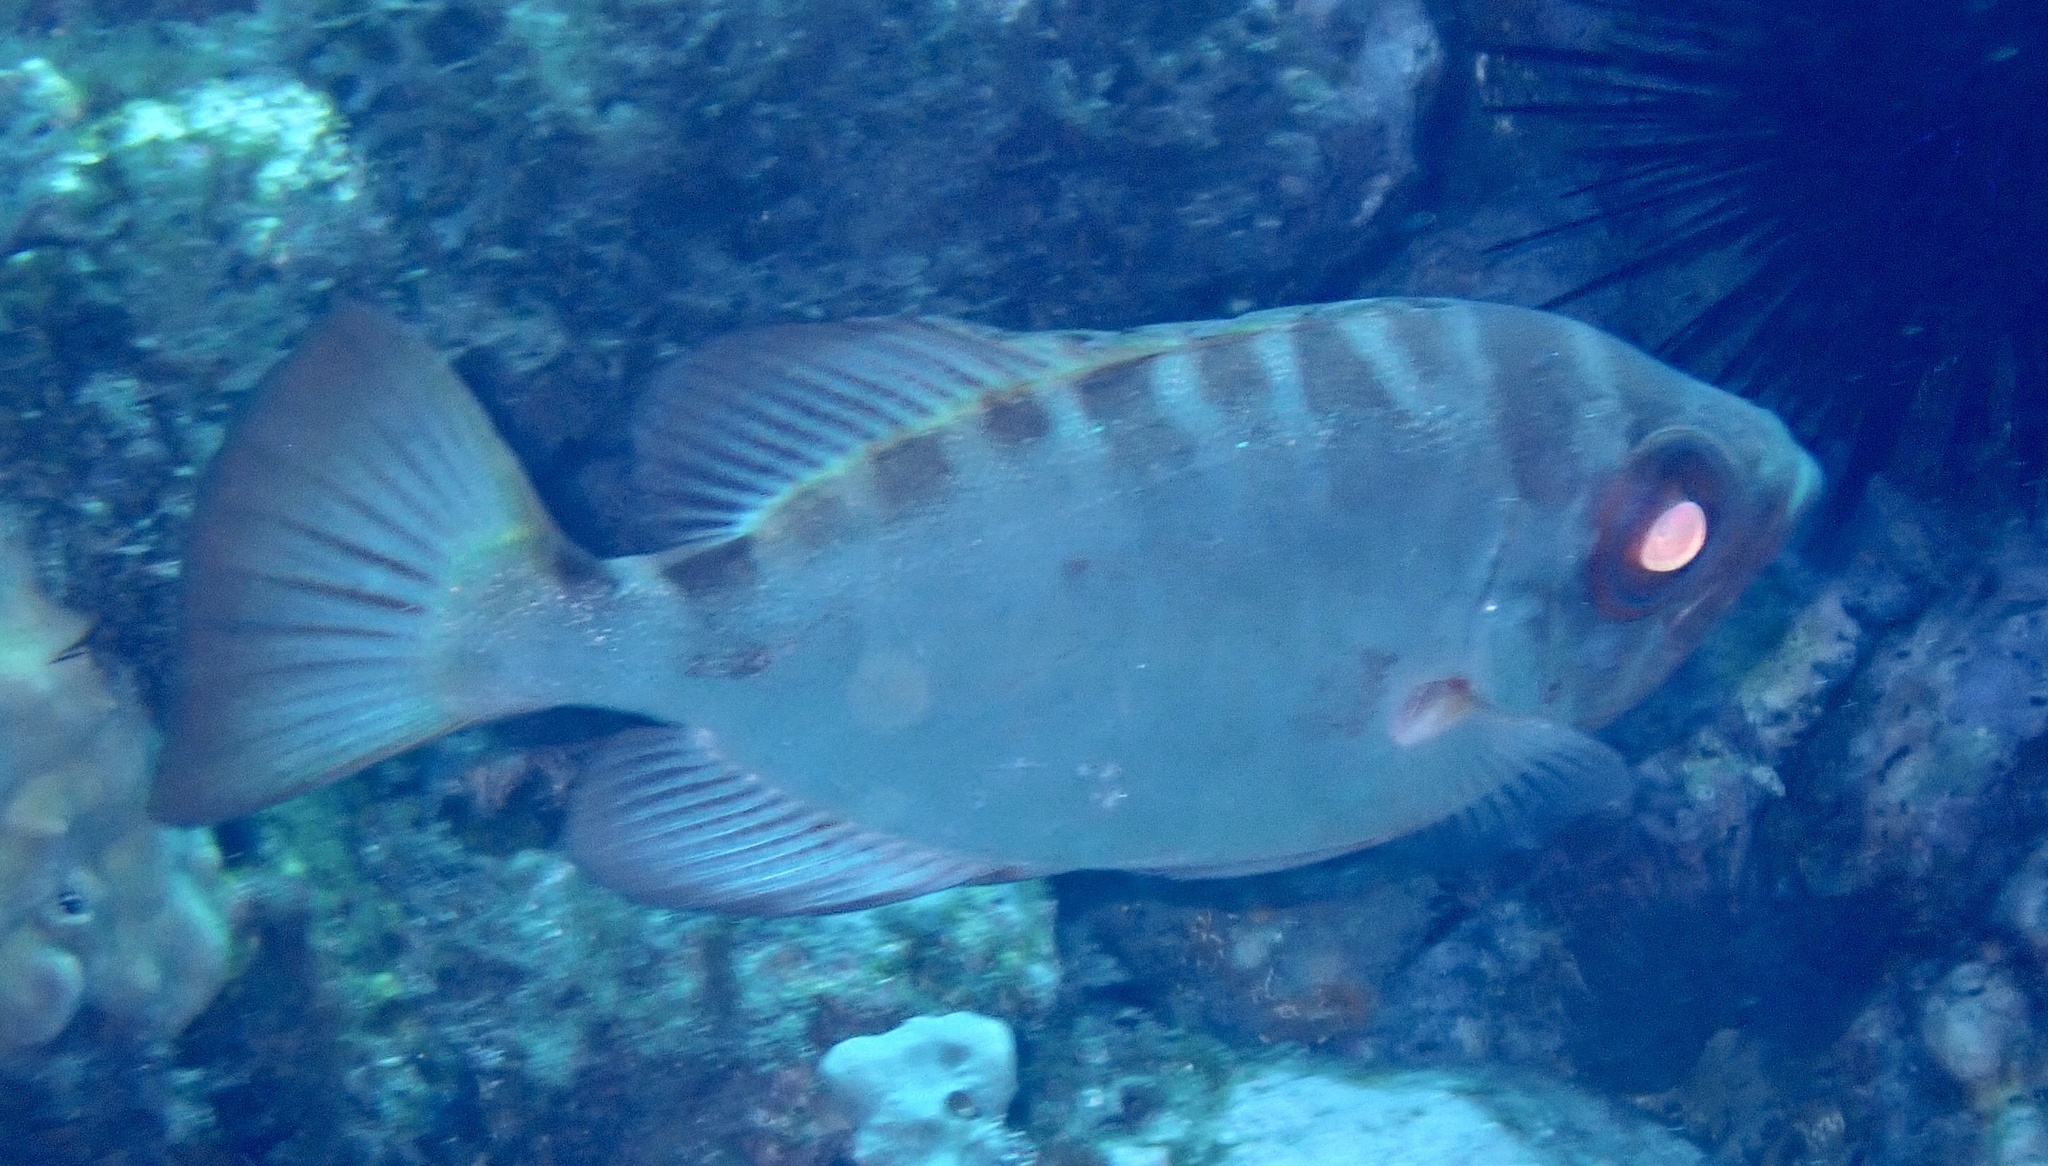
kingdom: Animalia
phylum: Chordata
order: Perciformes
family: Priacanthidae
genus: Heteropriacanthus
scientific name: Heteropriacanthus fulgens
